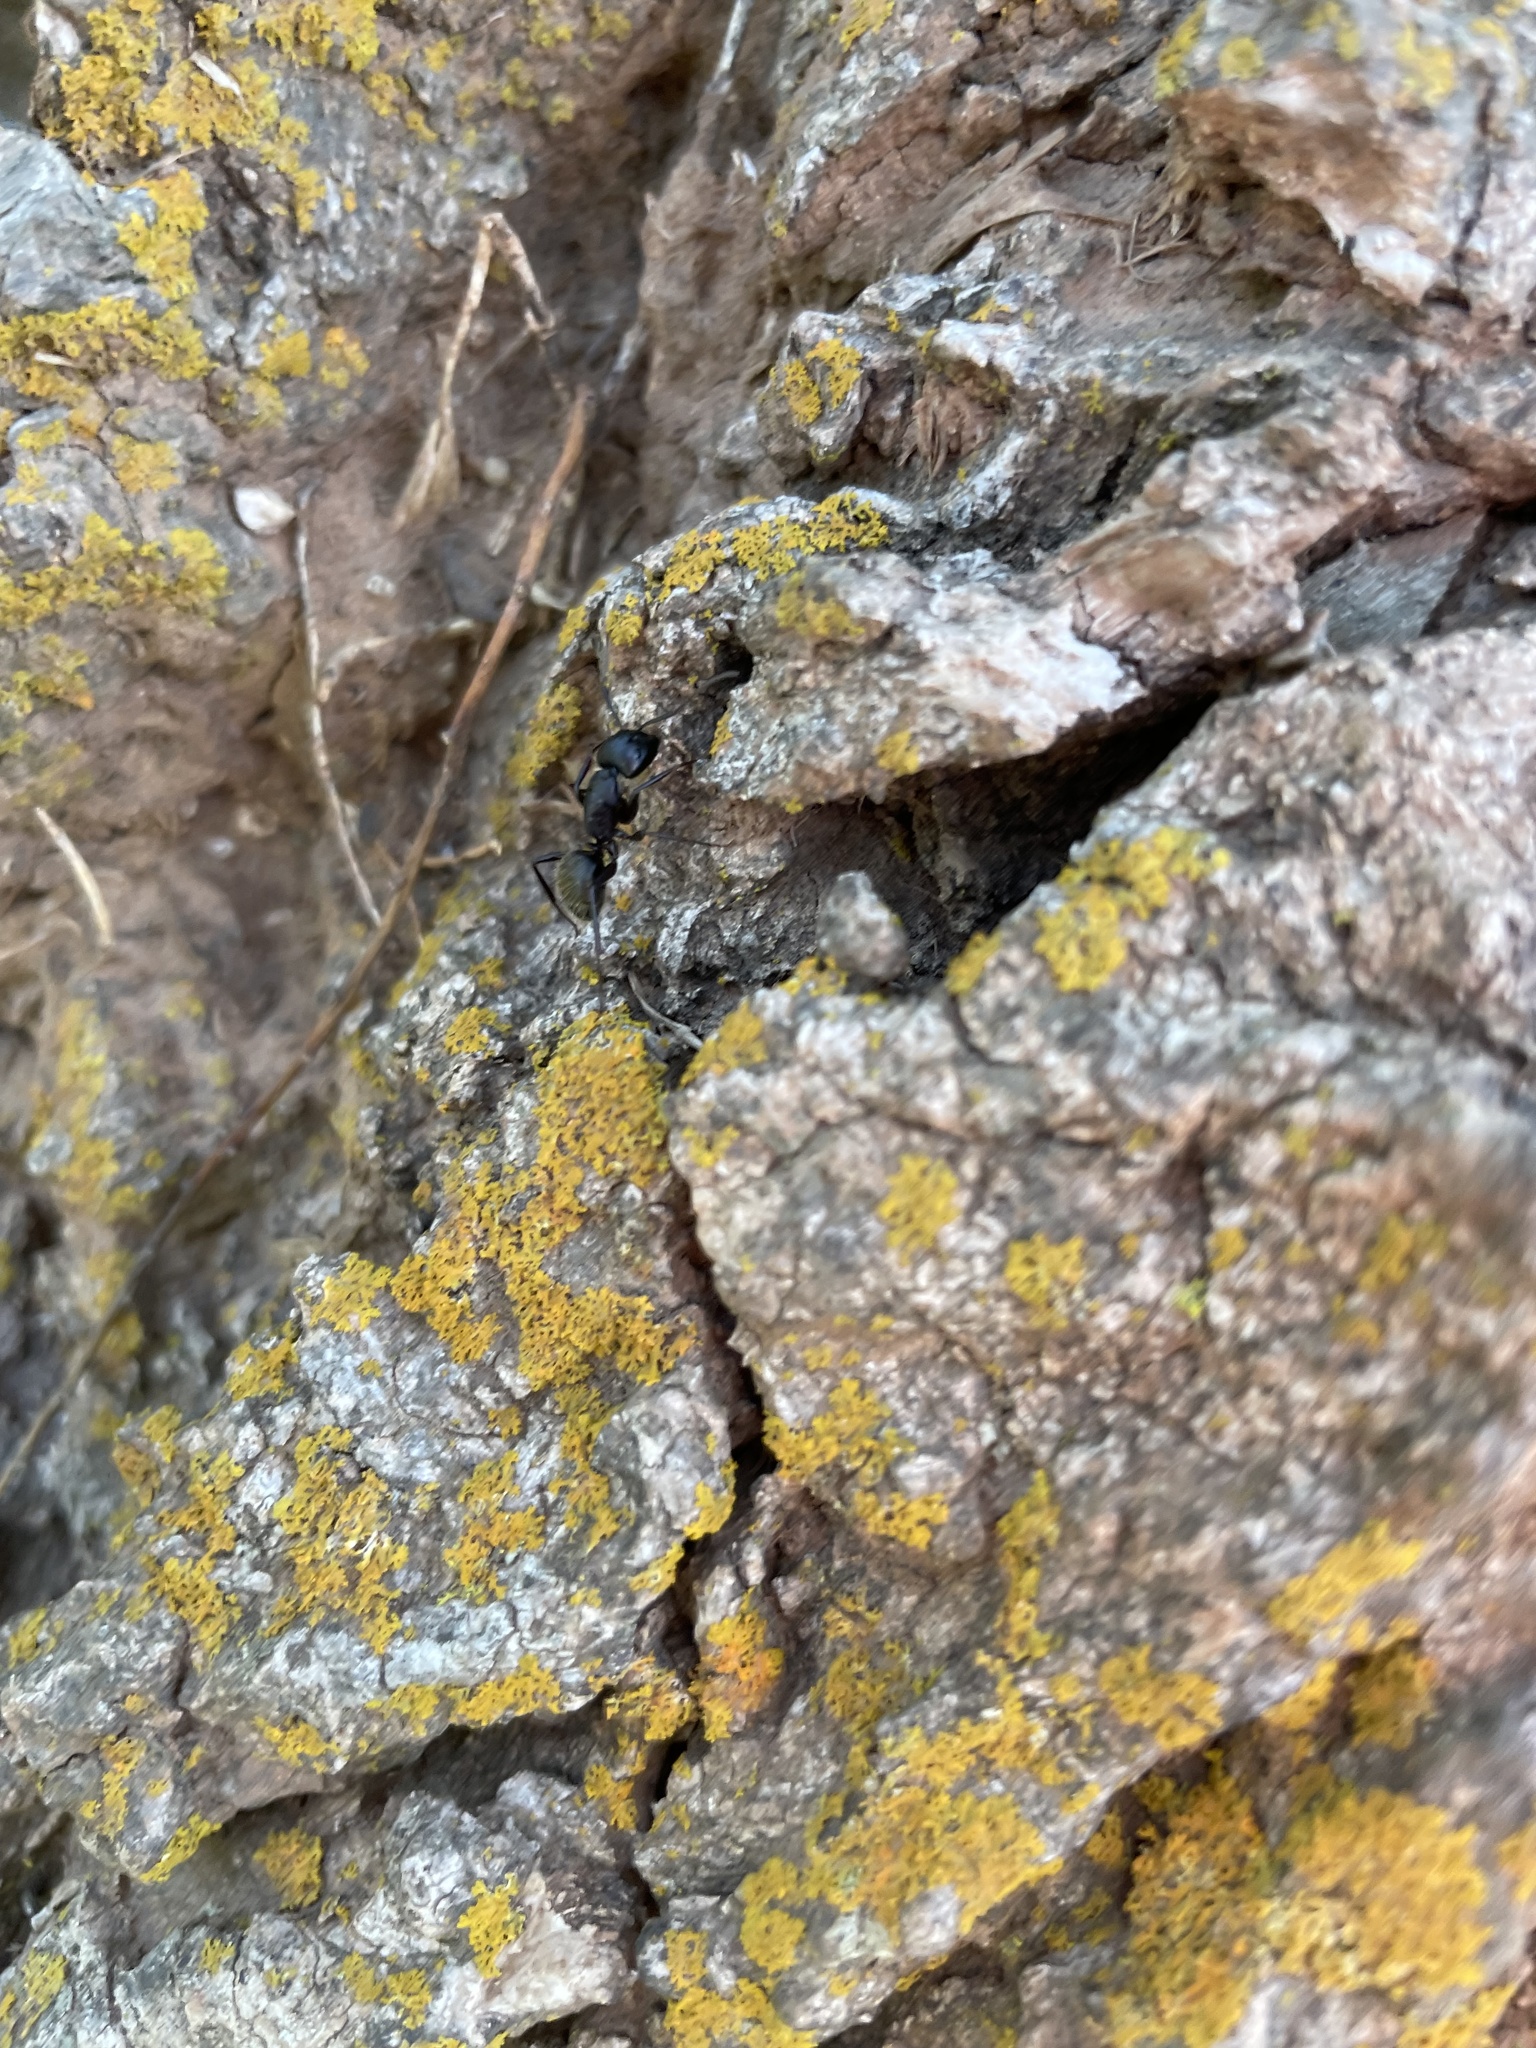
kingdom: Animalia
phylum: Arthropoda
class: Insecta
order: Hymenoptera
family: Formicidae
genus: Camponotus
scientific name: Camponotus pennsylvanicus
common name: Black carpenter ant
